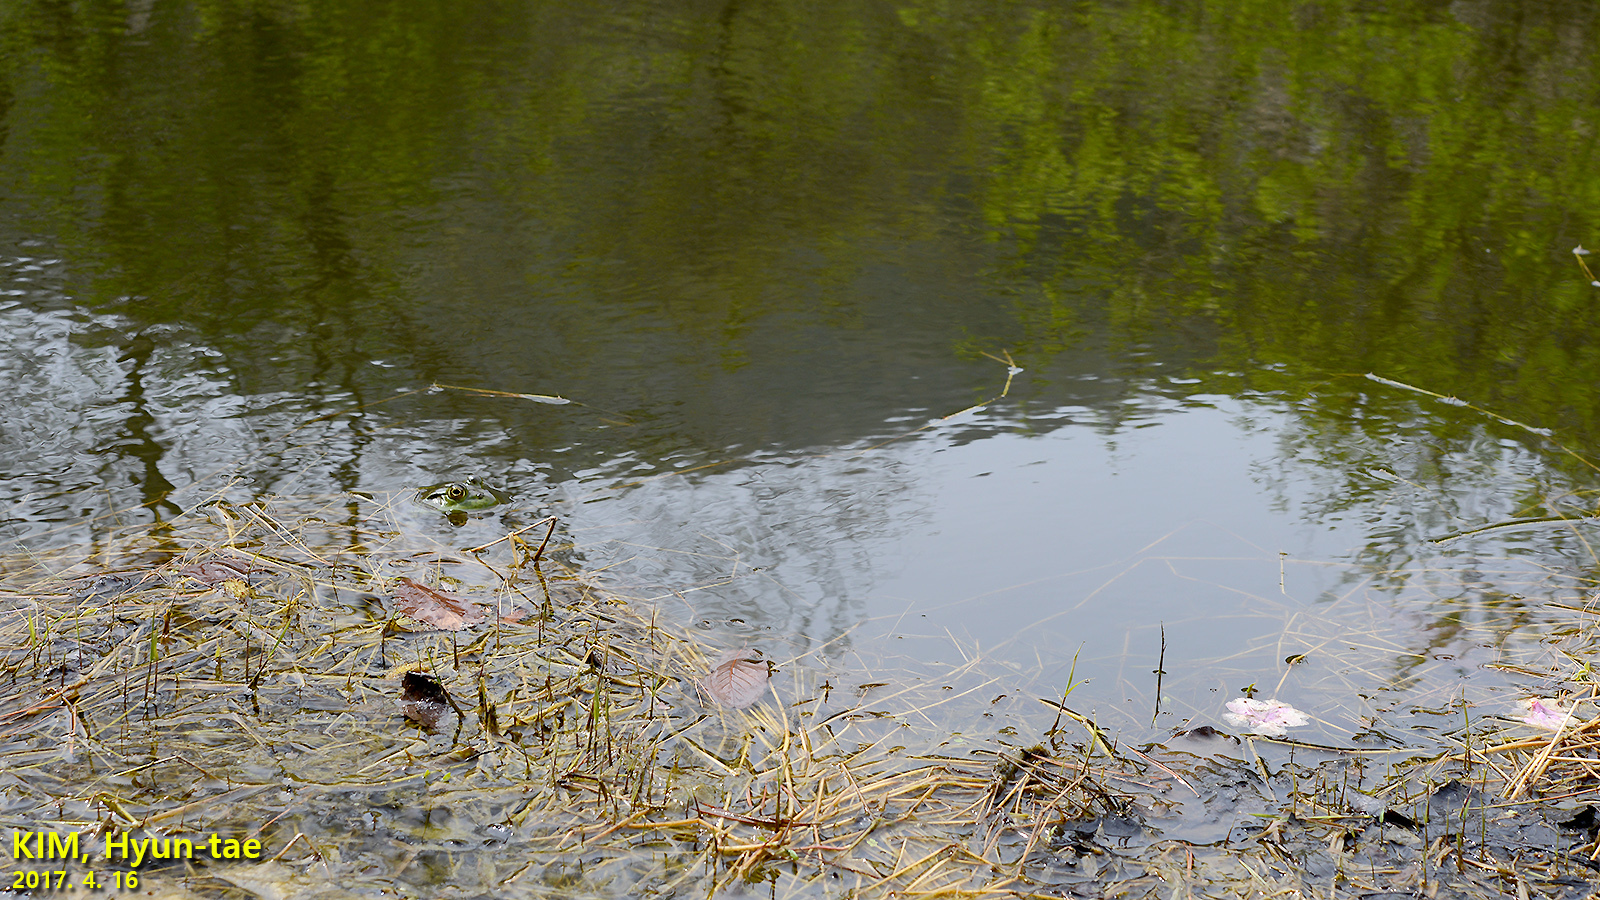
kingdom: Animalia
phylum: Chordata
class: Amphibia
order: Anura
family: Ranidae
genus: Lithobates
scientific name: Lithobates catesbeianus
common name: American bullfrog
